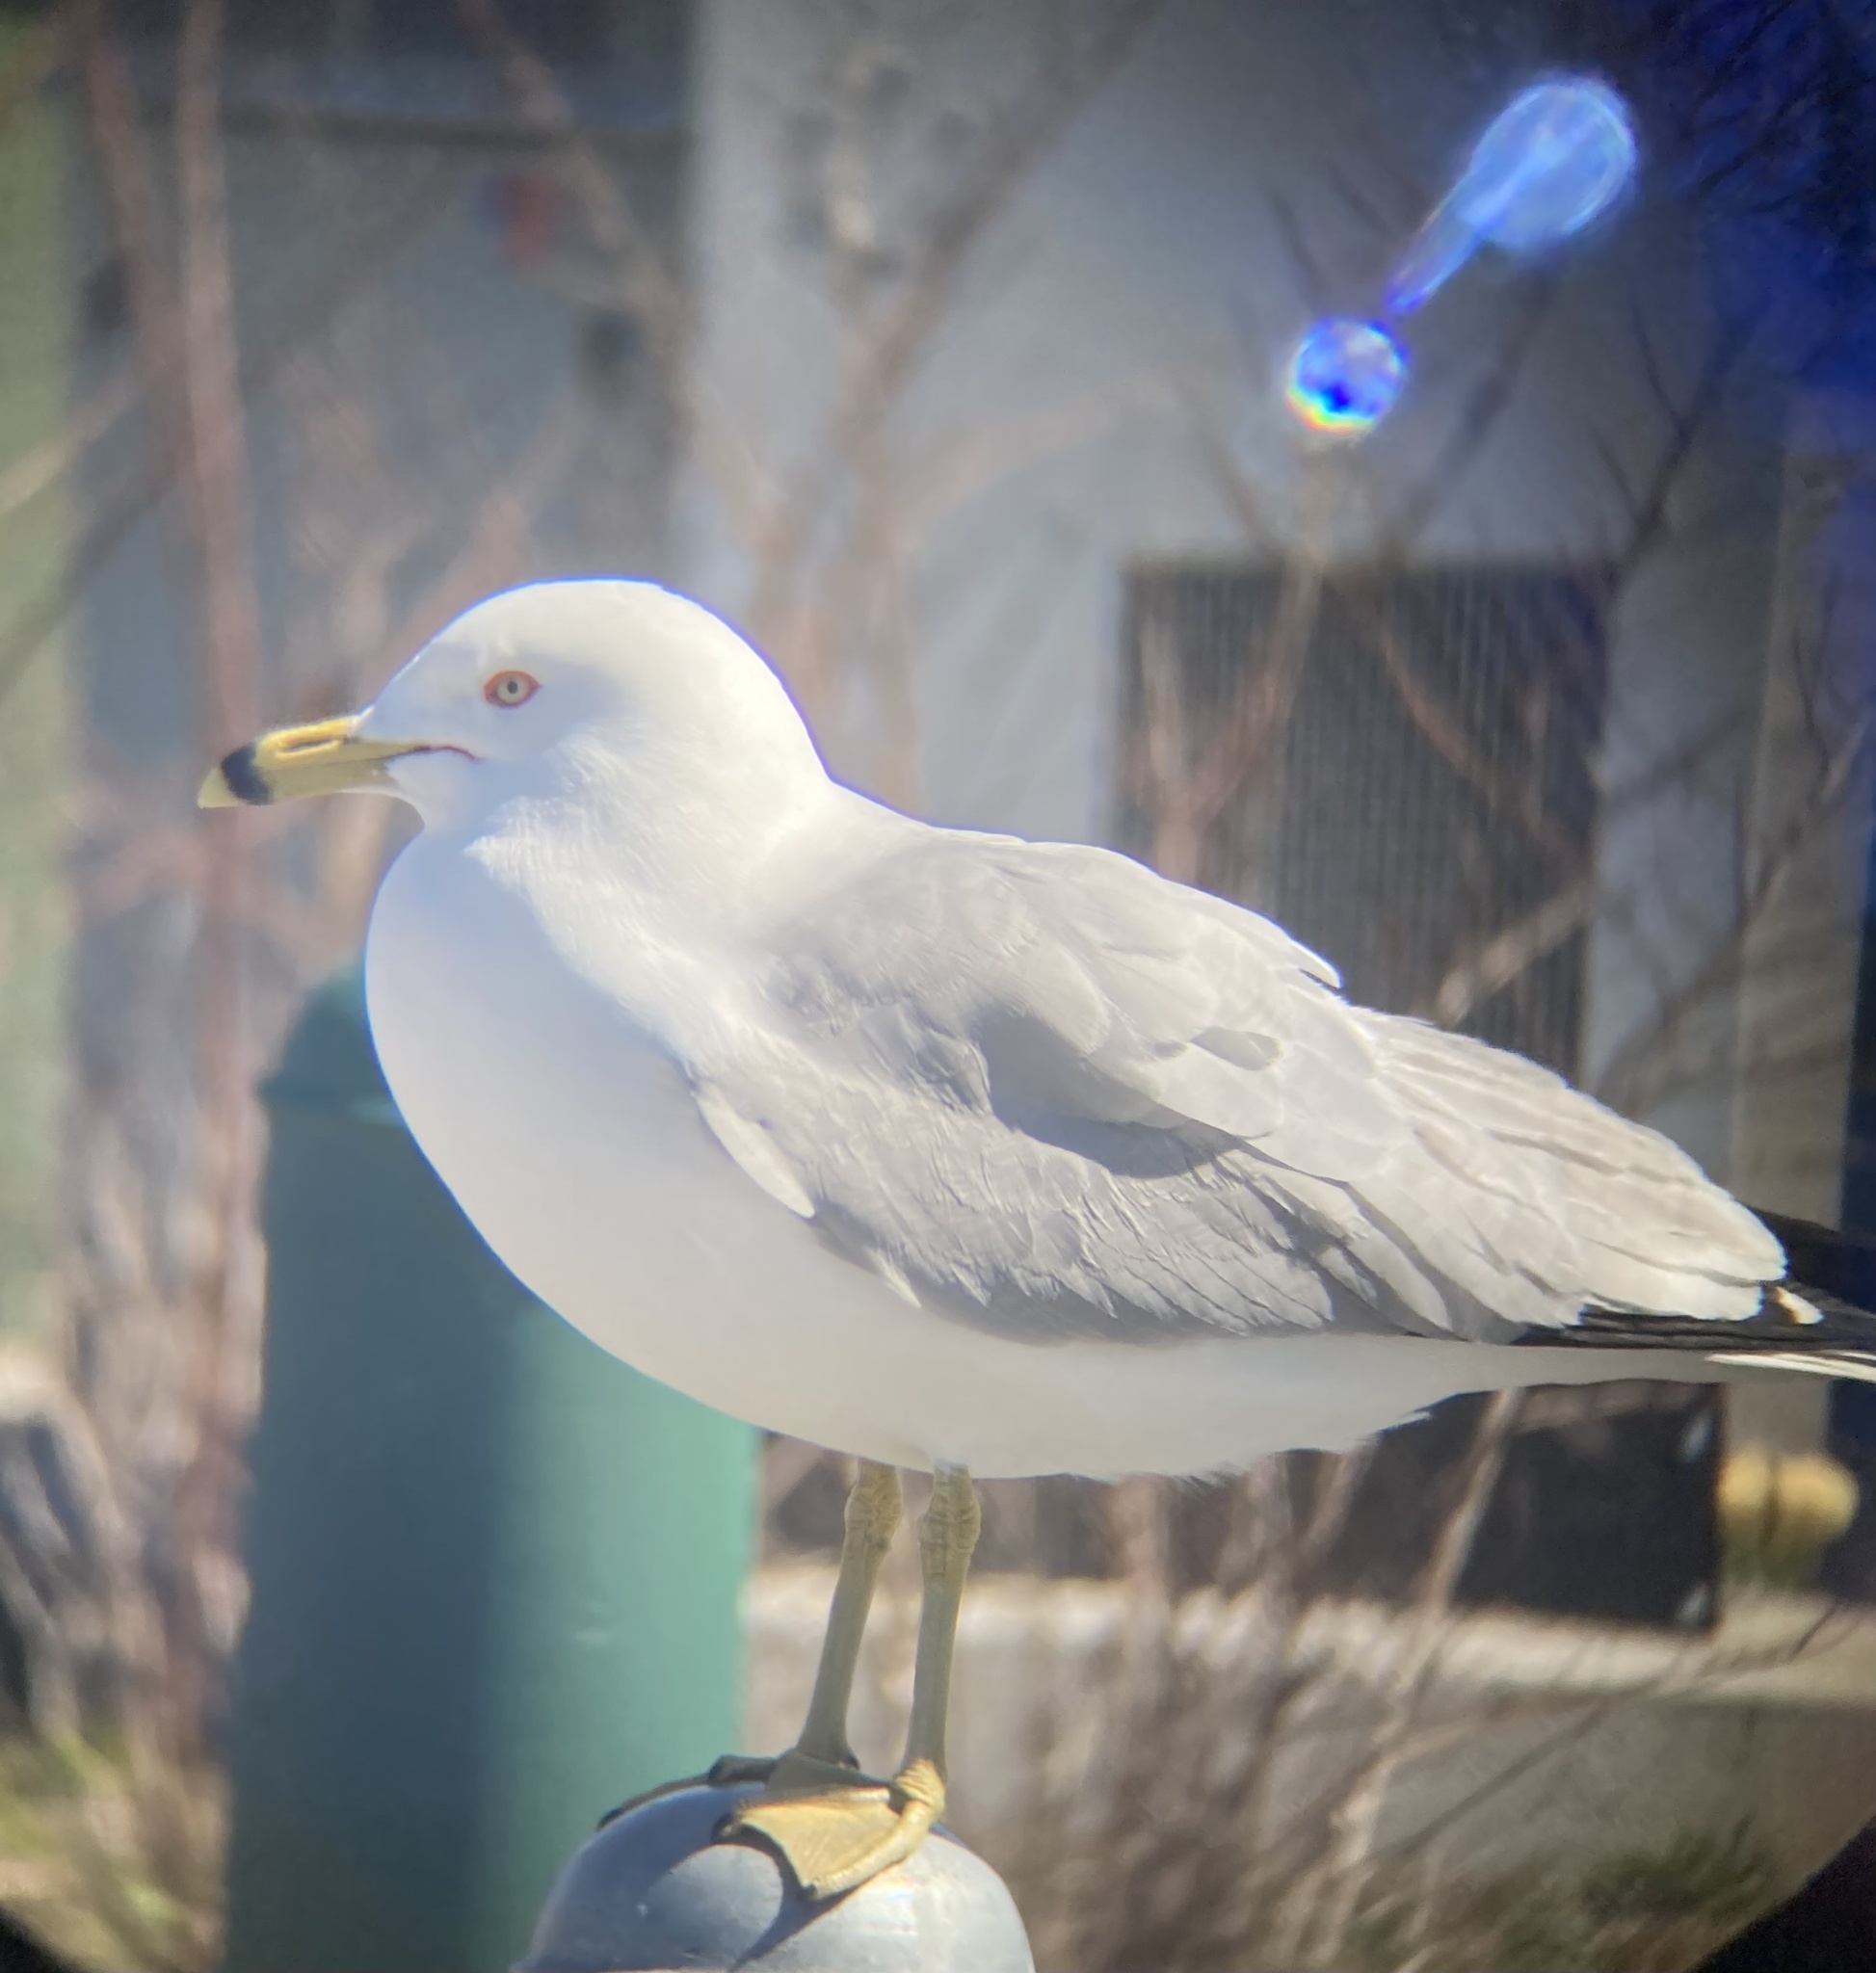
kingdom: Animalia
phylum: Chordata
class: Aves
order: Charadriiformes
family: Laridae
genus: Larus
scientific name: Larus delawarensis
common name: Ring-billed gull
